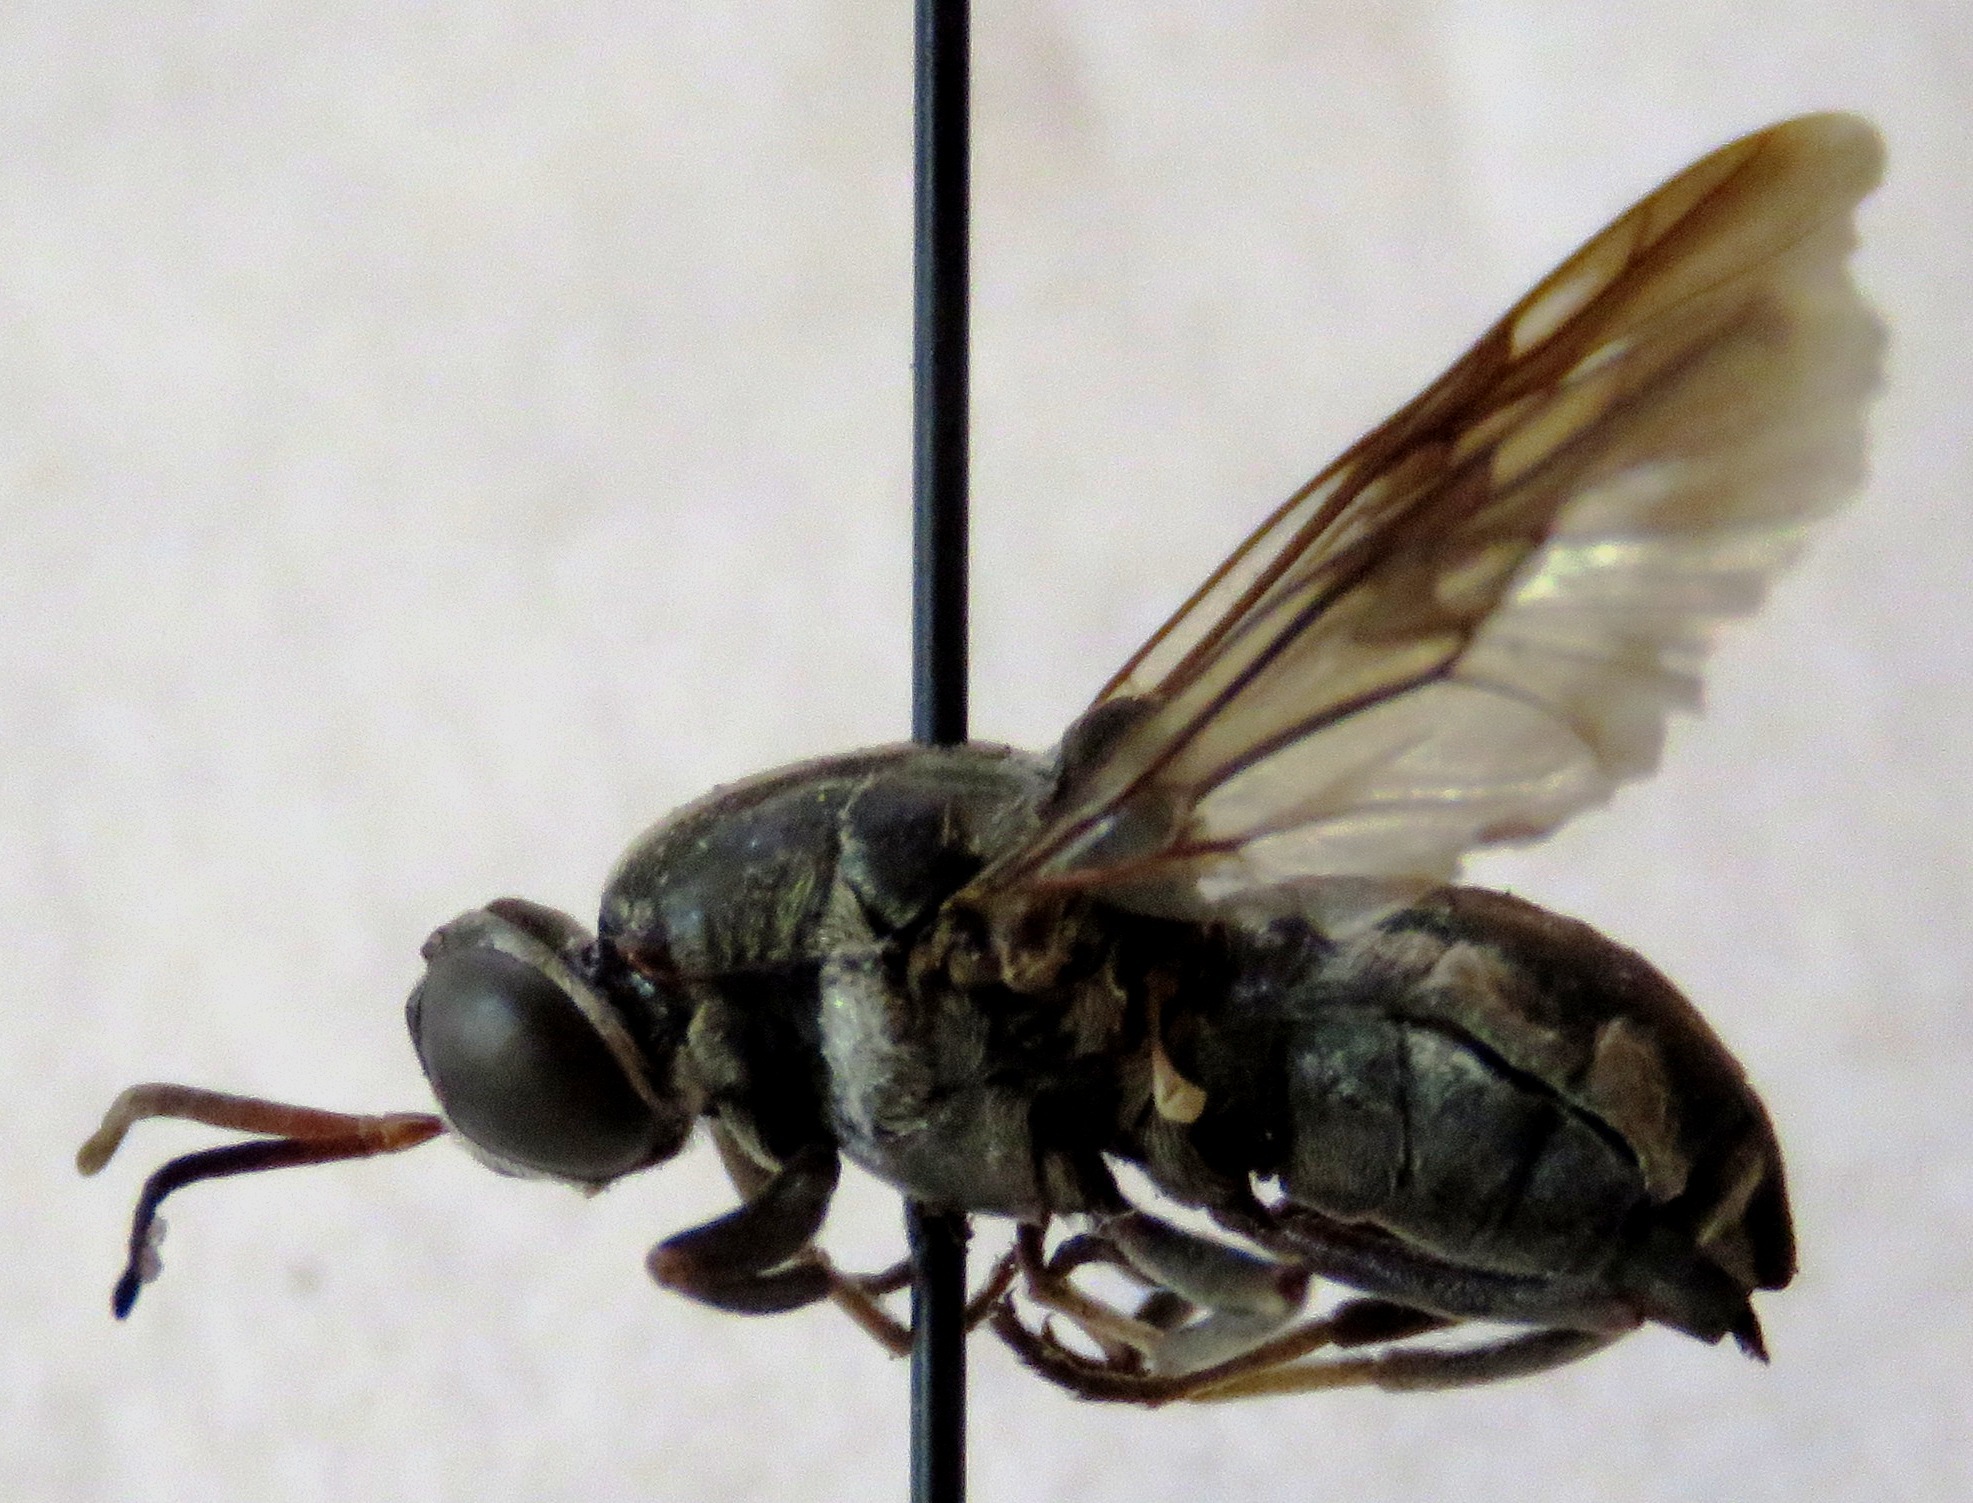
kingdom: Animalia
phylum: Arthropoda
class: Insecta
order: Diptera
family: Stratiomyidae
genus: Cyphomyia
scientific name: Cyphomyia albitarsis
